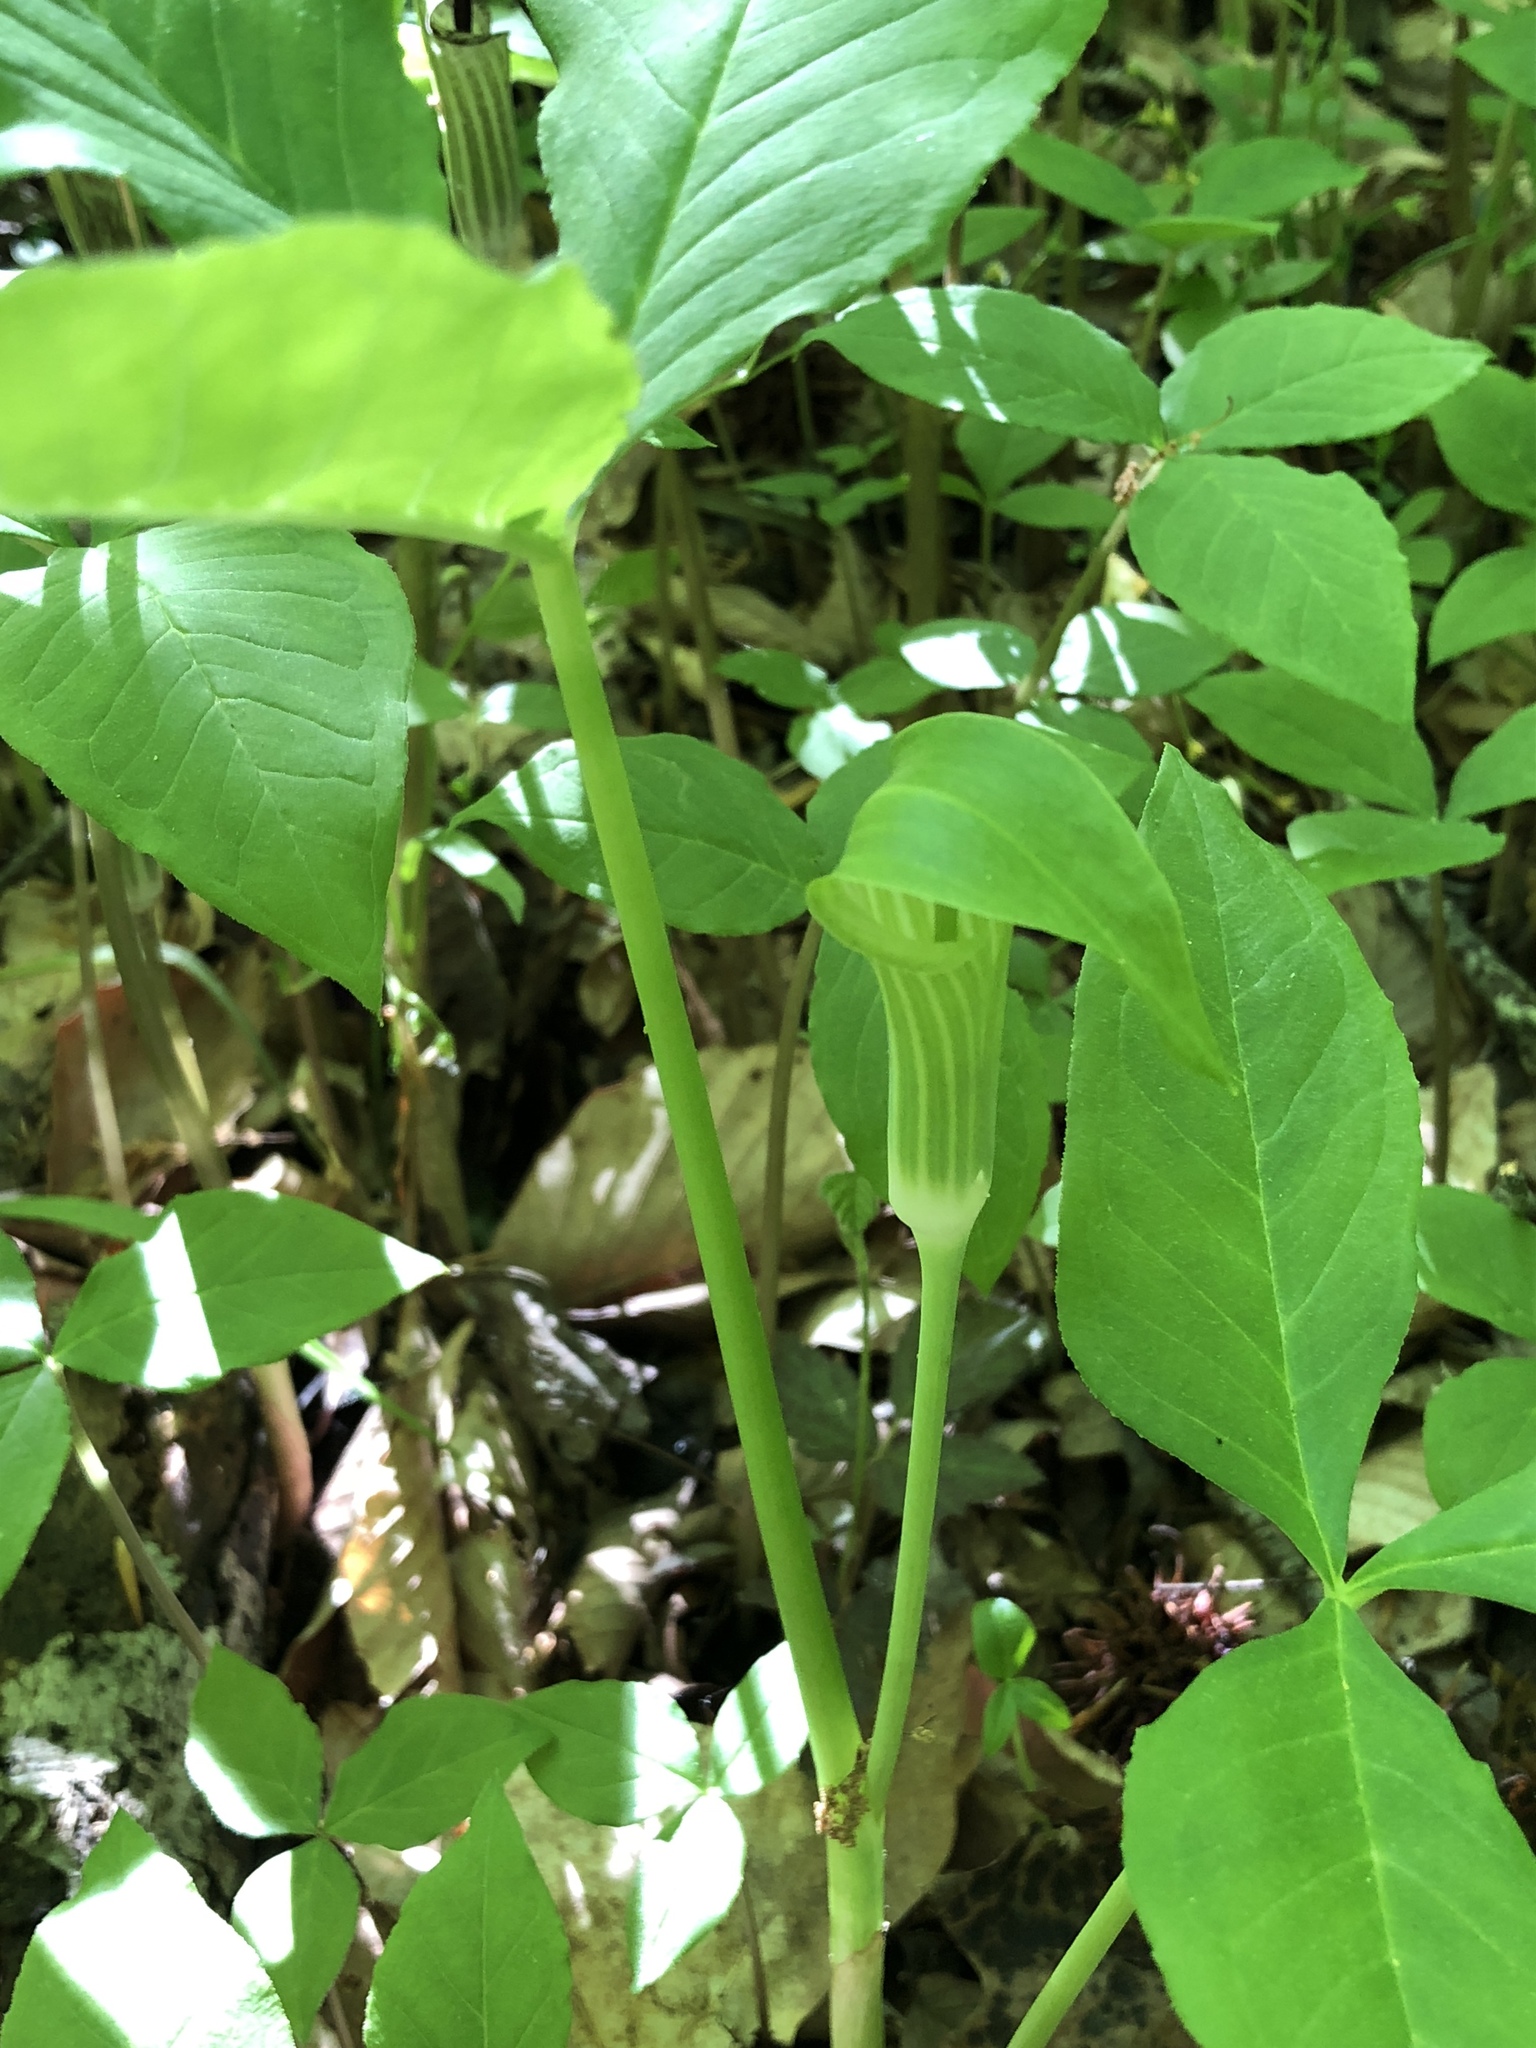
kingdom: Plantae
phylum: Tracheophyta
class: Liliopsida
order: Alismatales
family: Araceae
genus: Arisaema
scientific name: Arisaema triphyllum
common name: Jack-in-the-pulpit
